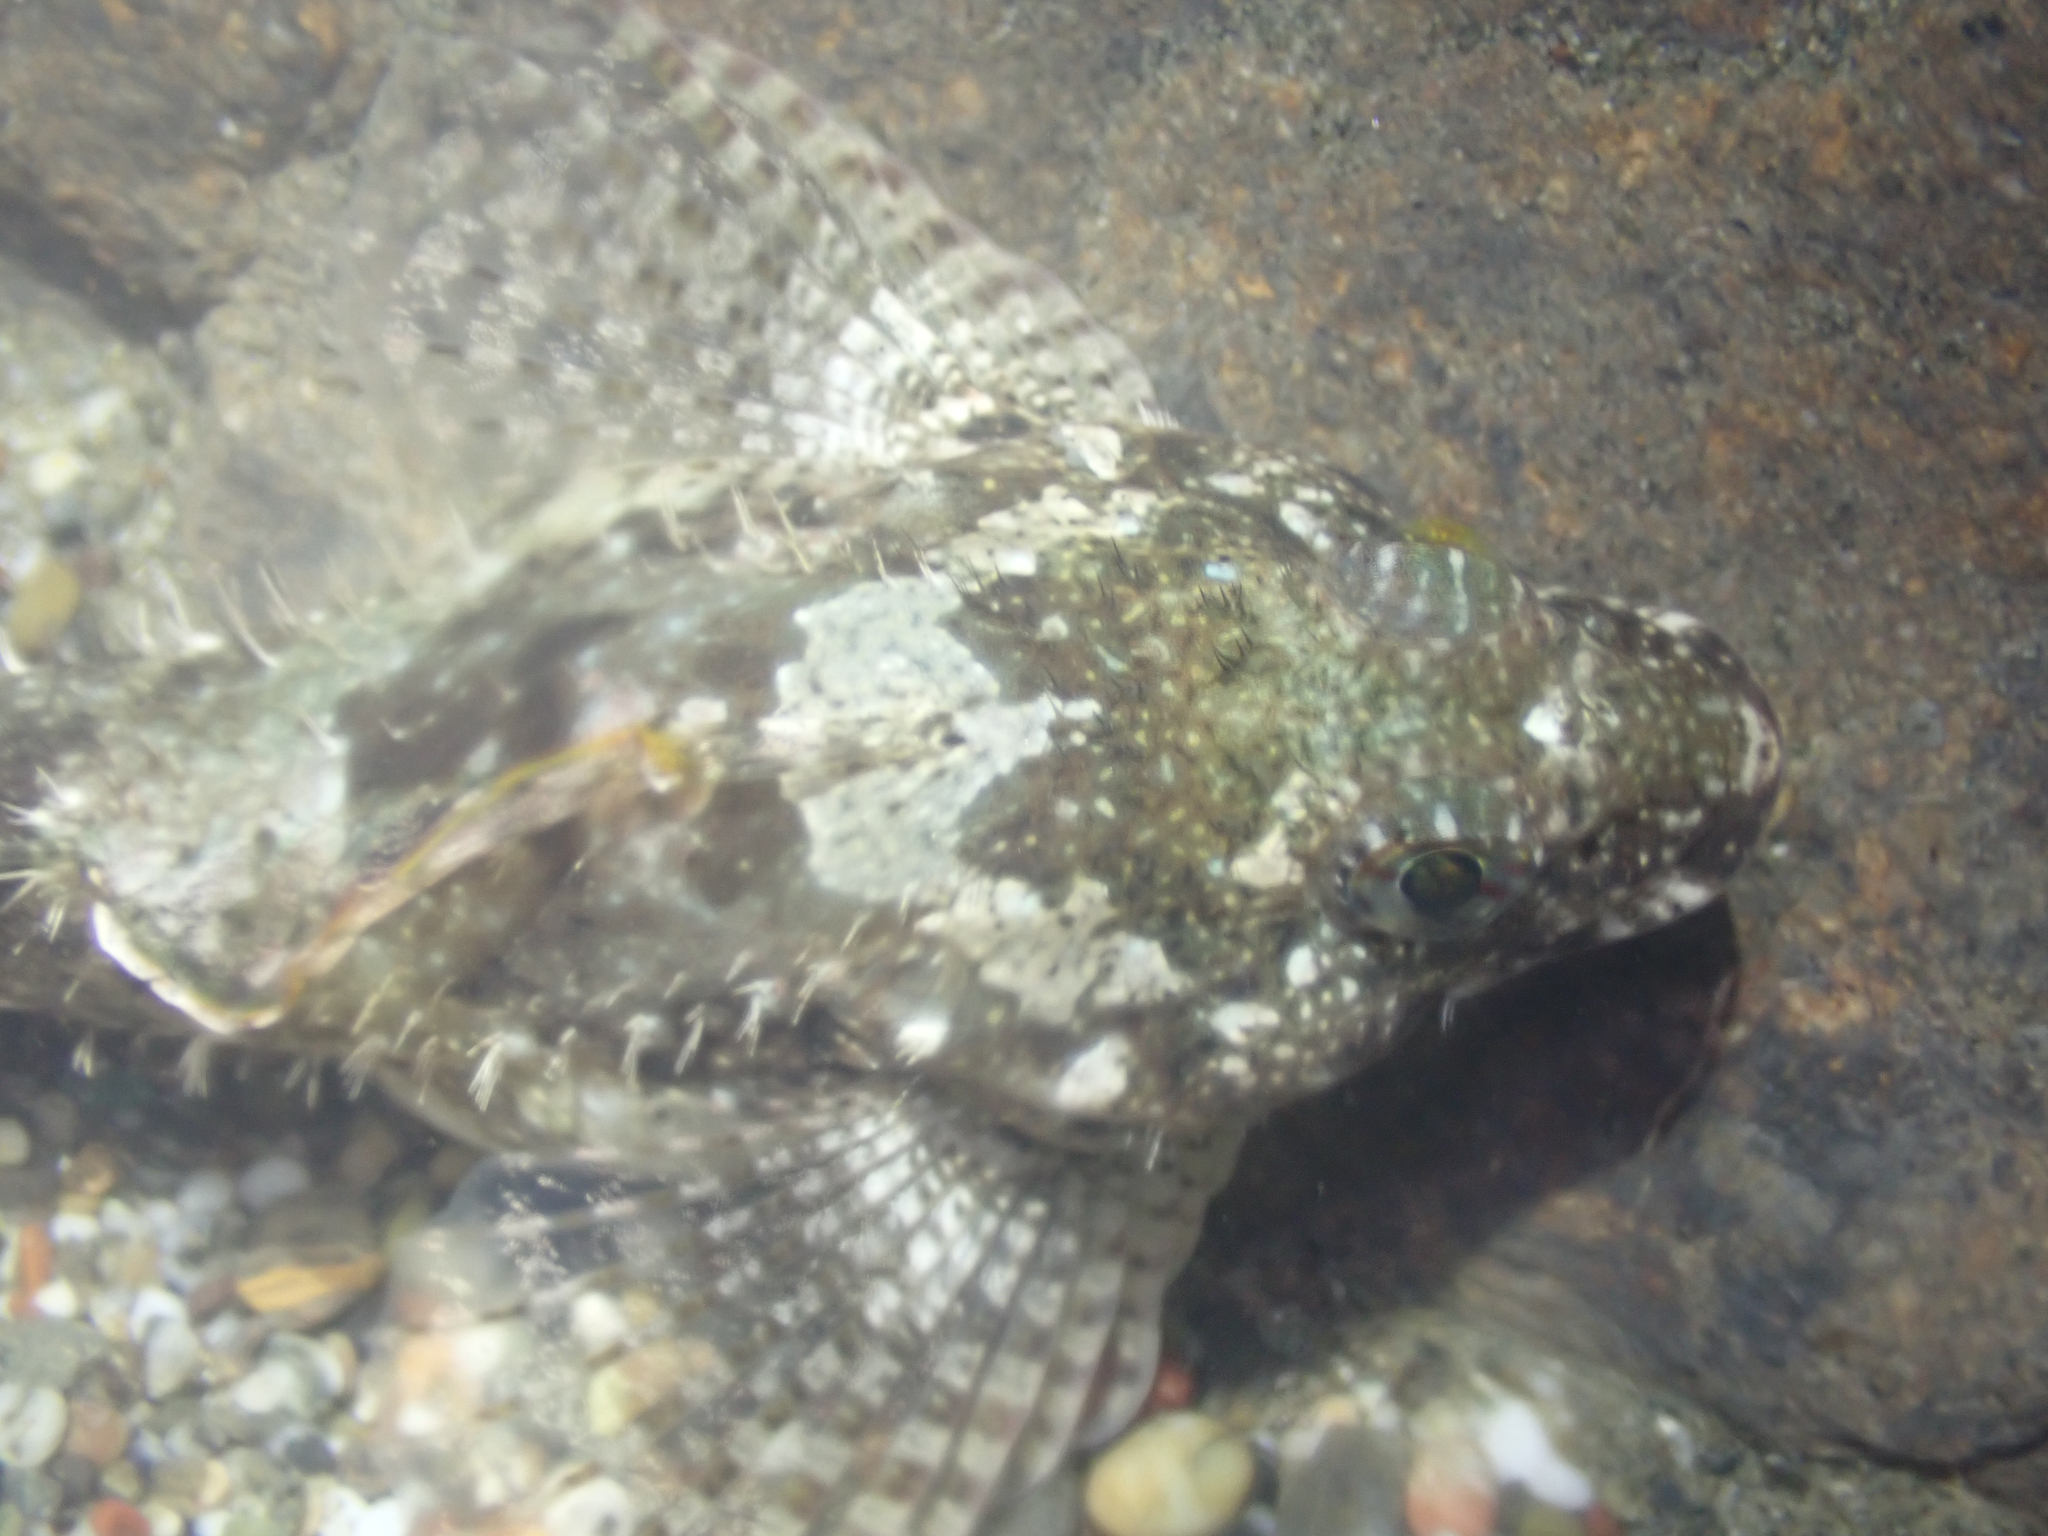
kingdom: Animalia
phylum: Chordata
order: Scorpaeniformes
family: Cottidae
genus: Clinocottus
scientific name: Clinocottus analis
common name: Woolly sculpin
